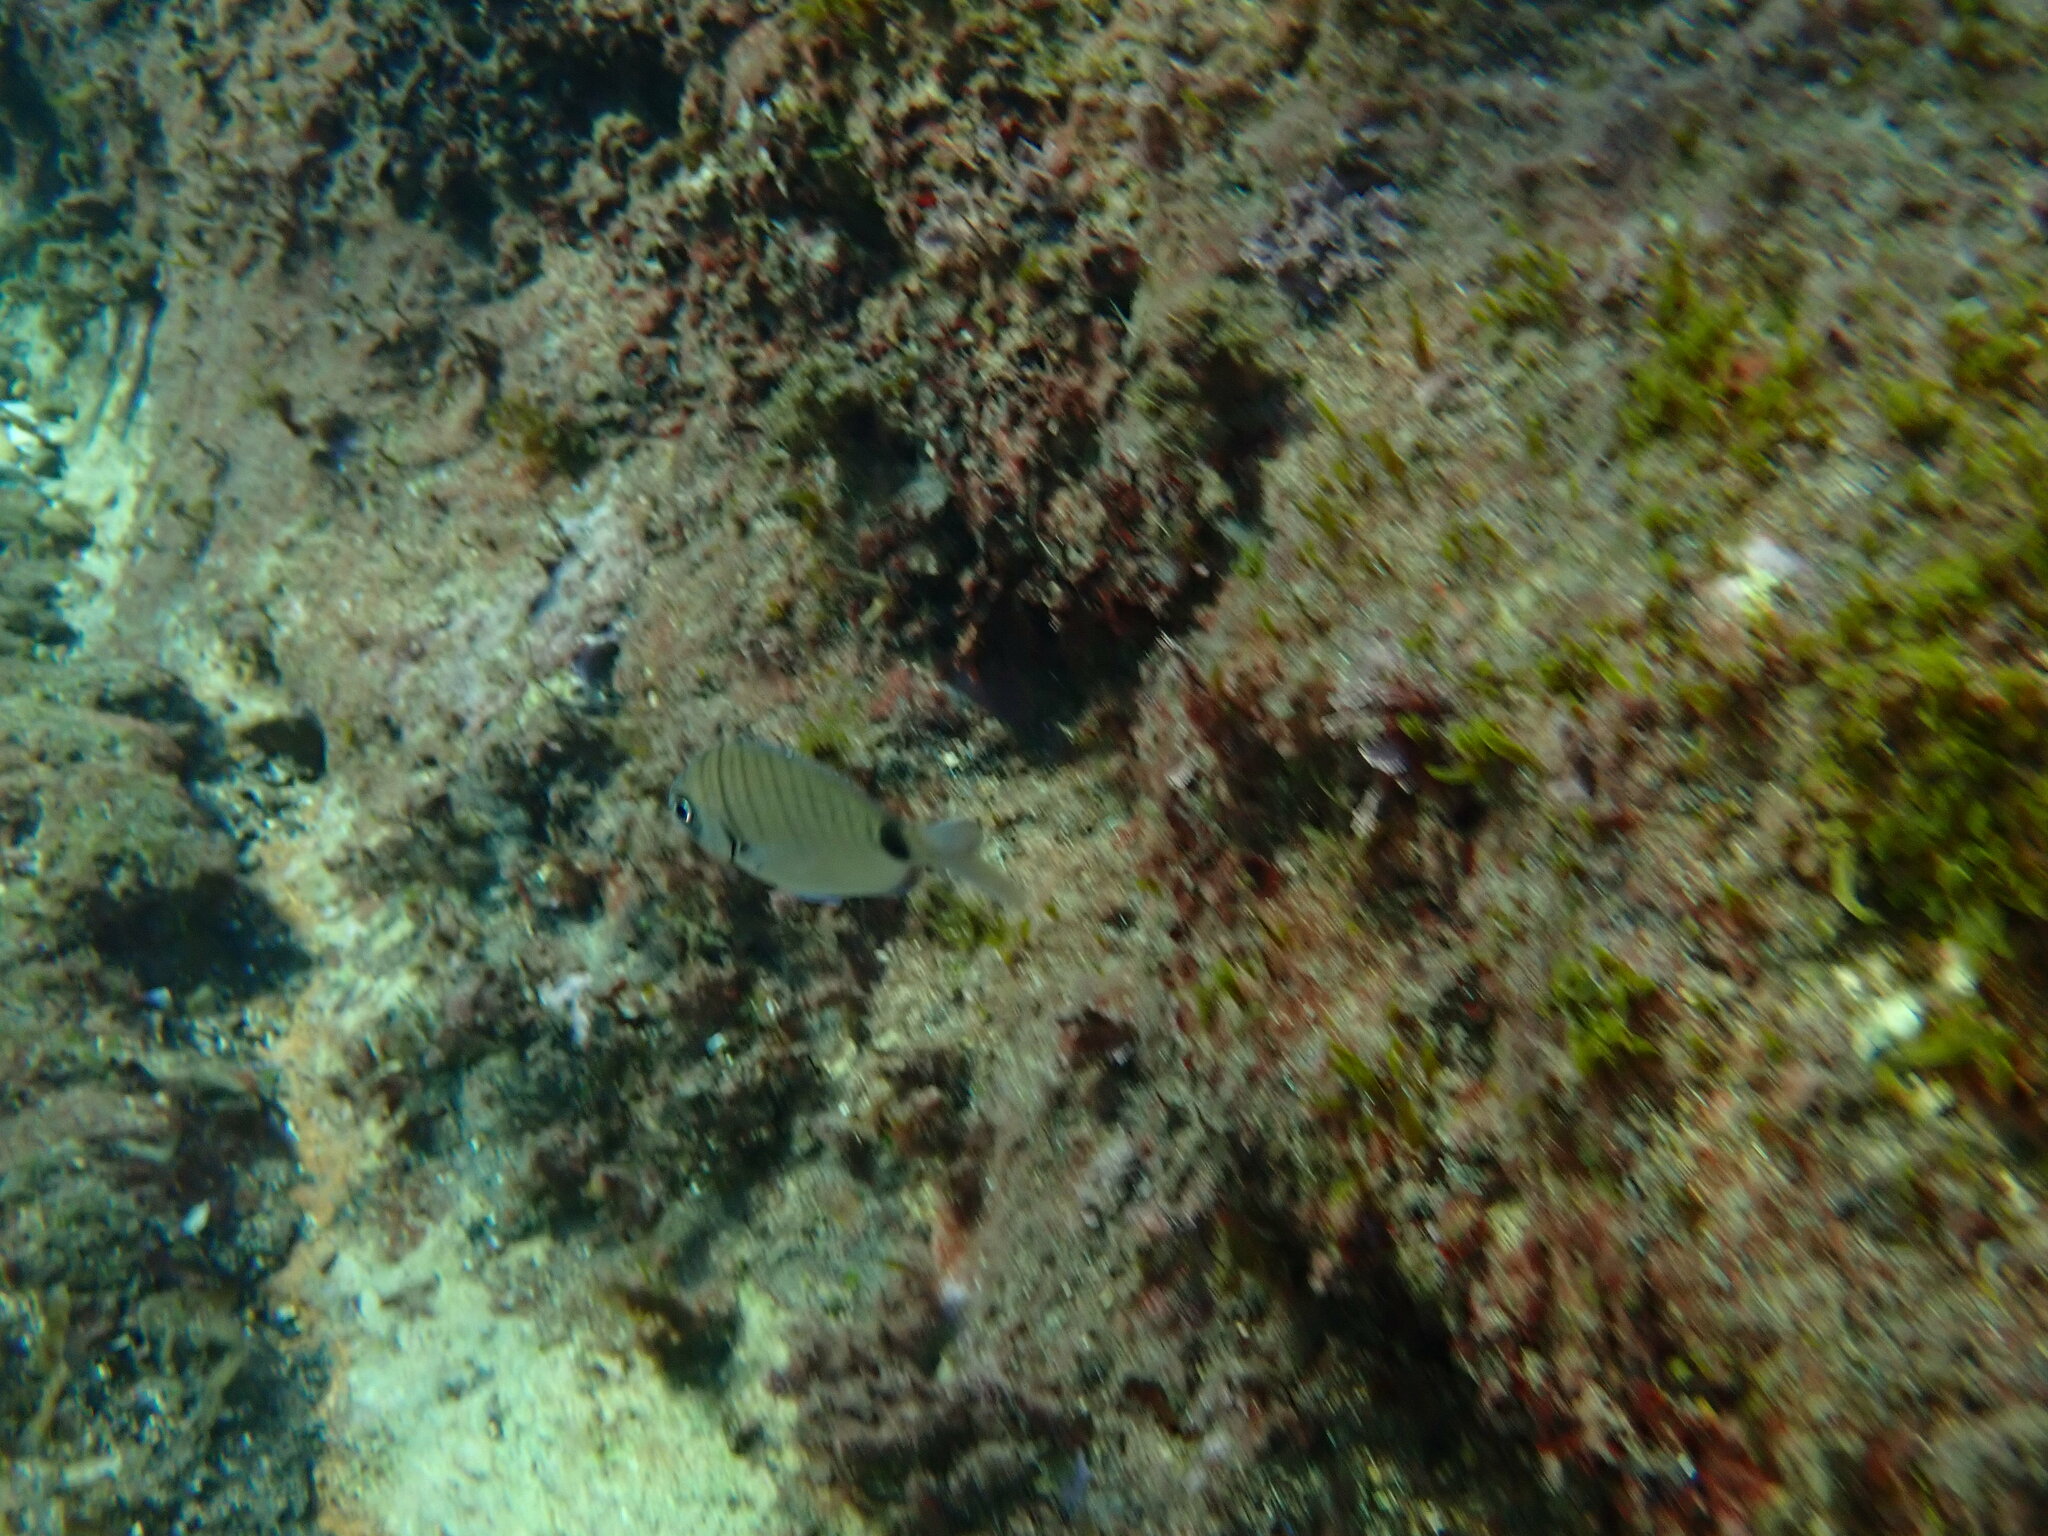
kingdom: Animalia
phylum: Chordata
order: Perciformes
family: Sparidae
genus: Diplodus
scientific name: Diplodus sargus
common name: White seabream
